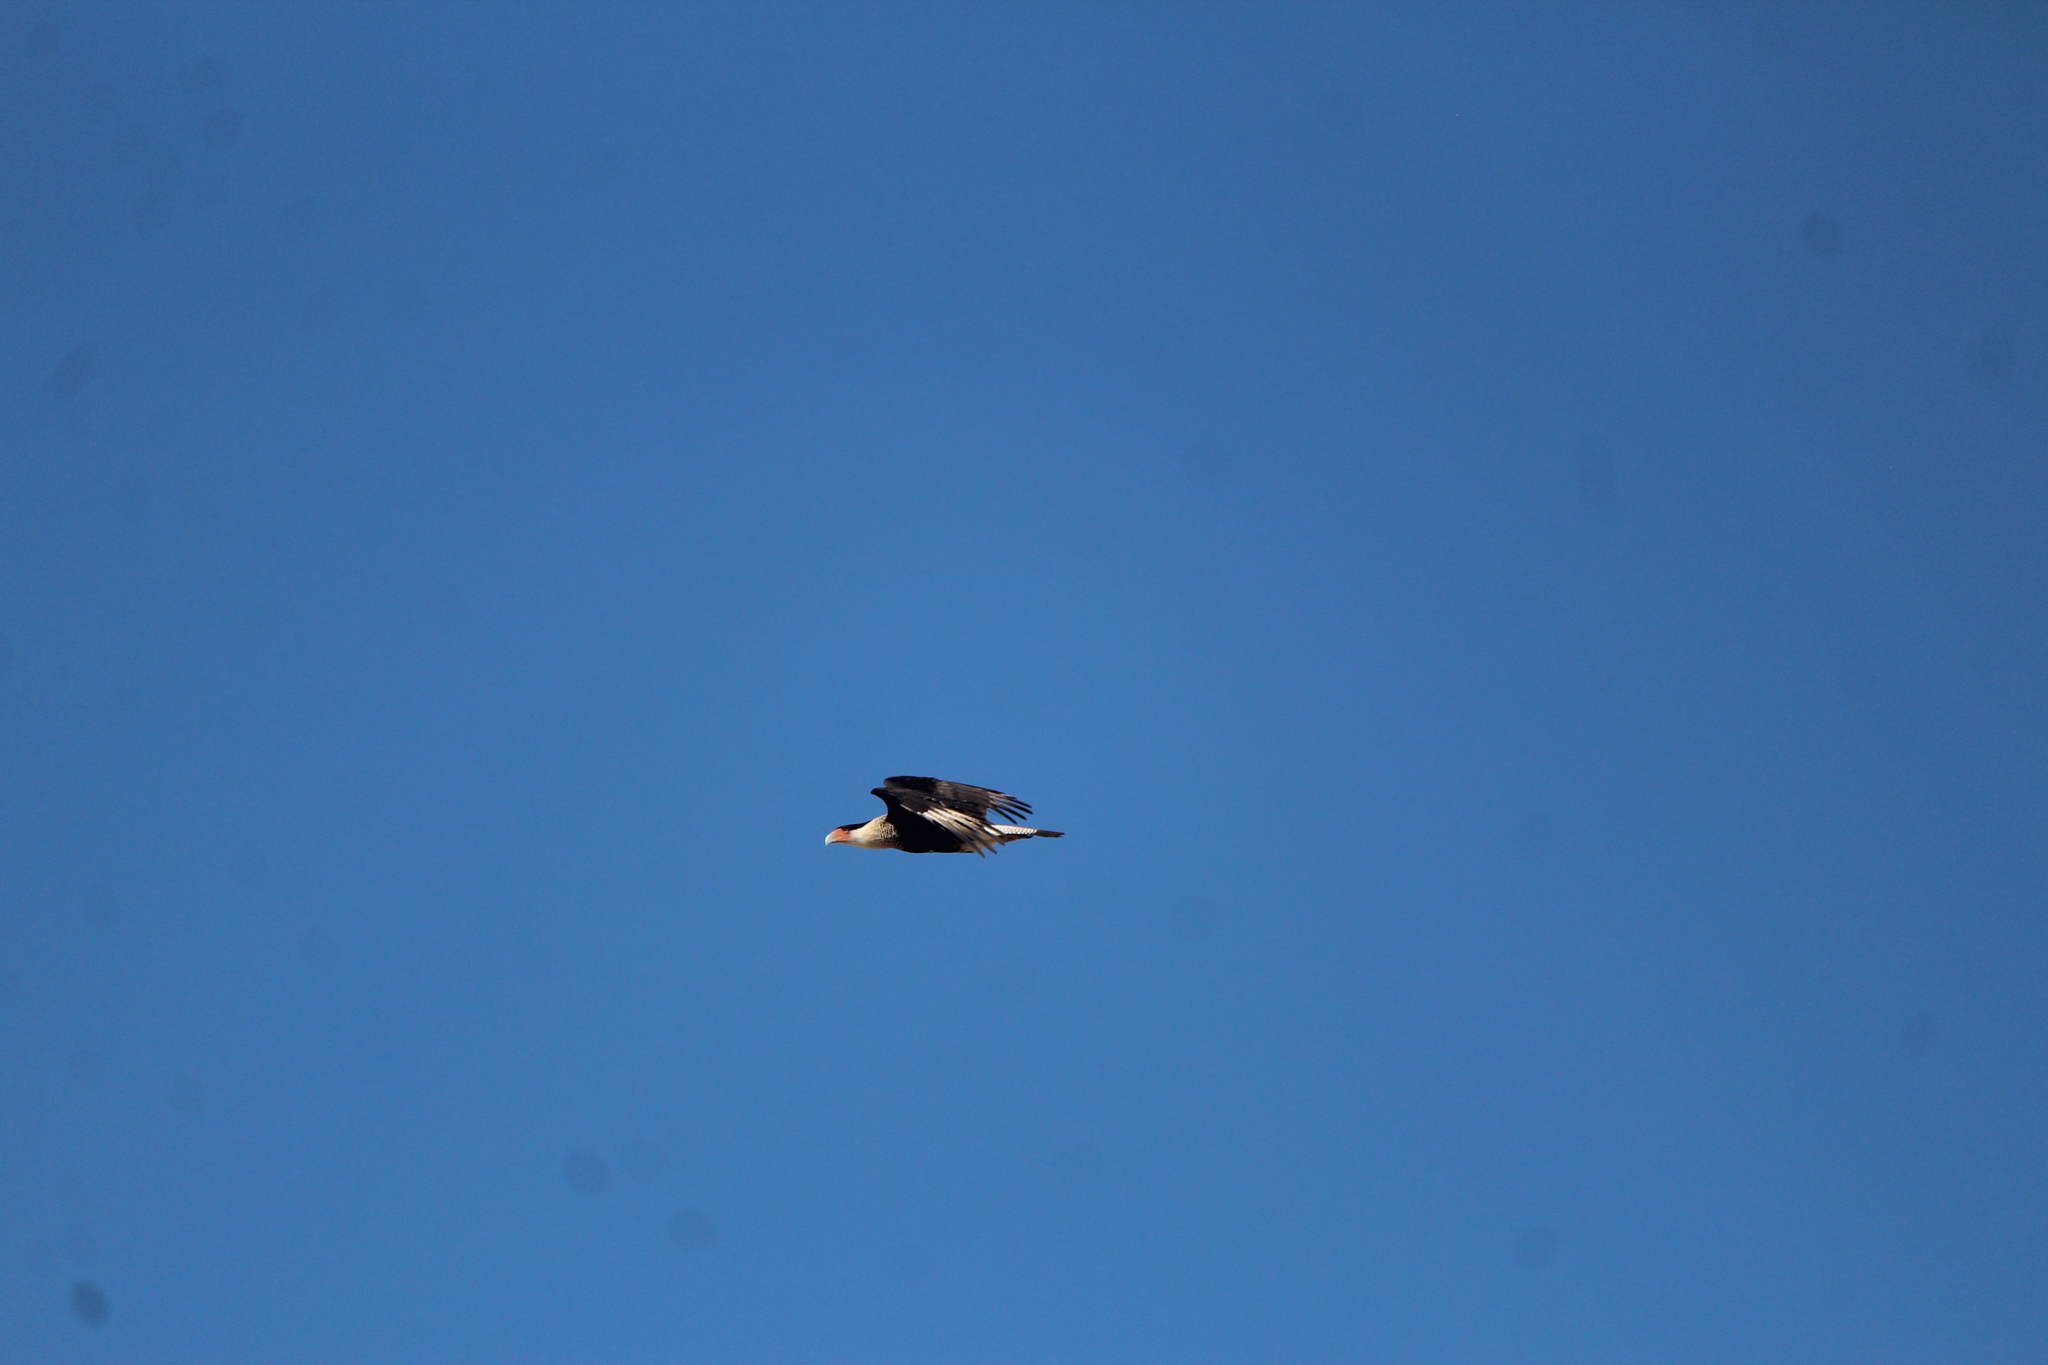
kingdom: Animalia
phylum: Chordata
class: Aves
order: Falconiformes
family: Falconidae
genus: Caracara
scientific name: Caracara plancus
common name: Southern caracara
